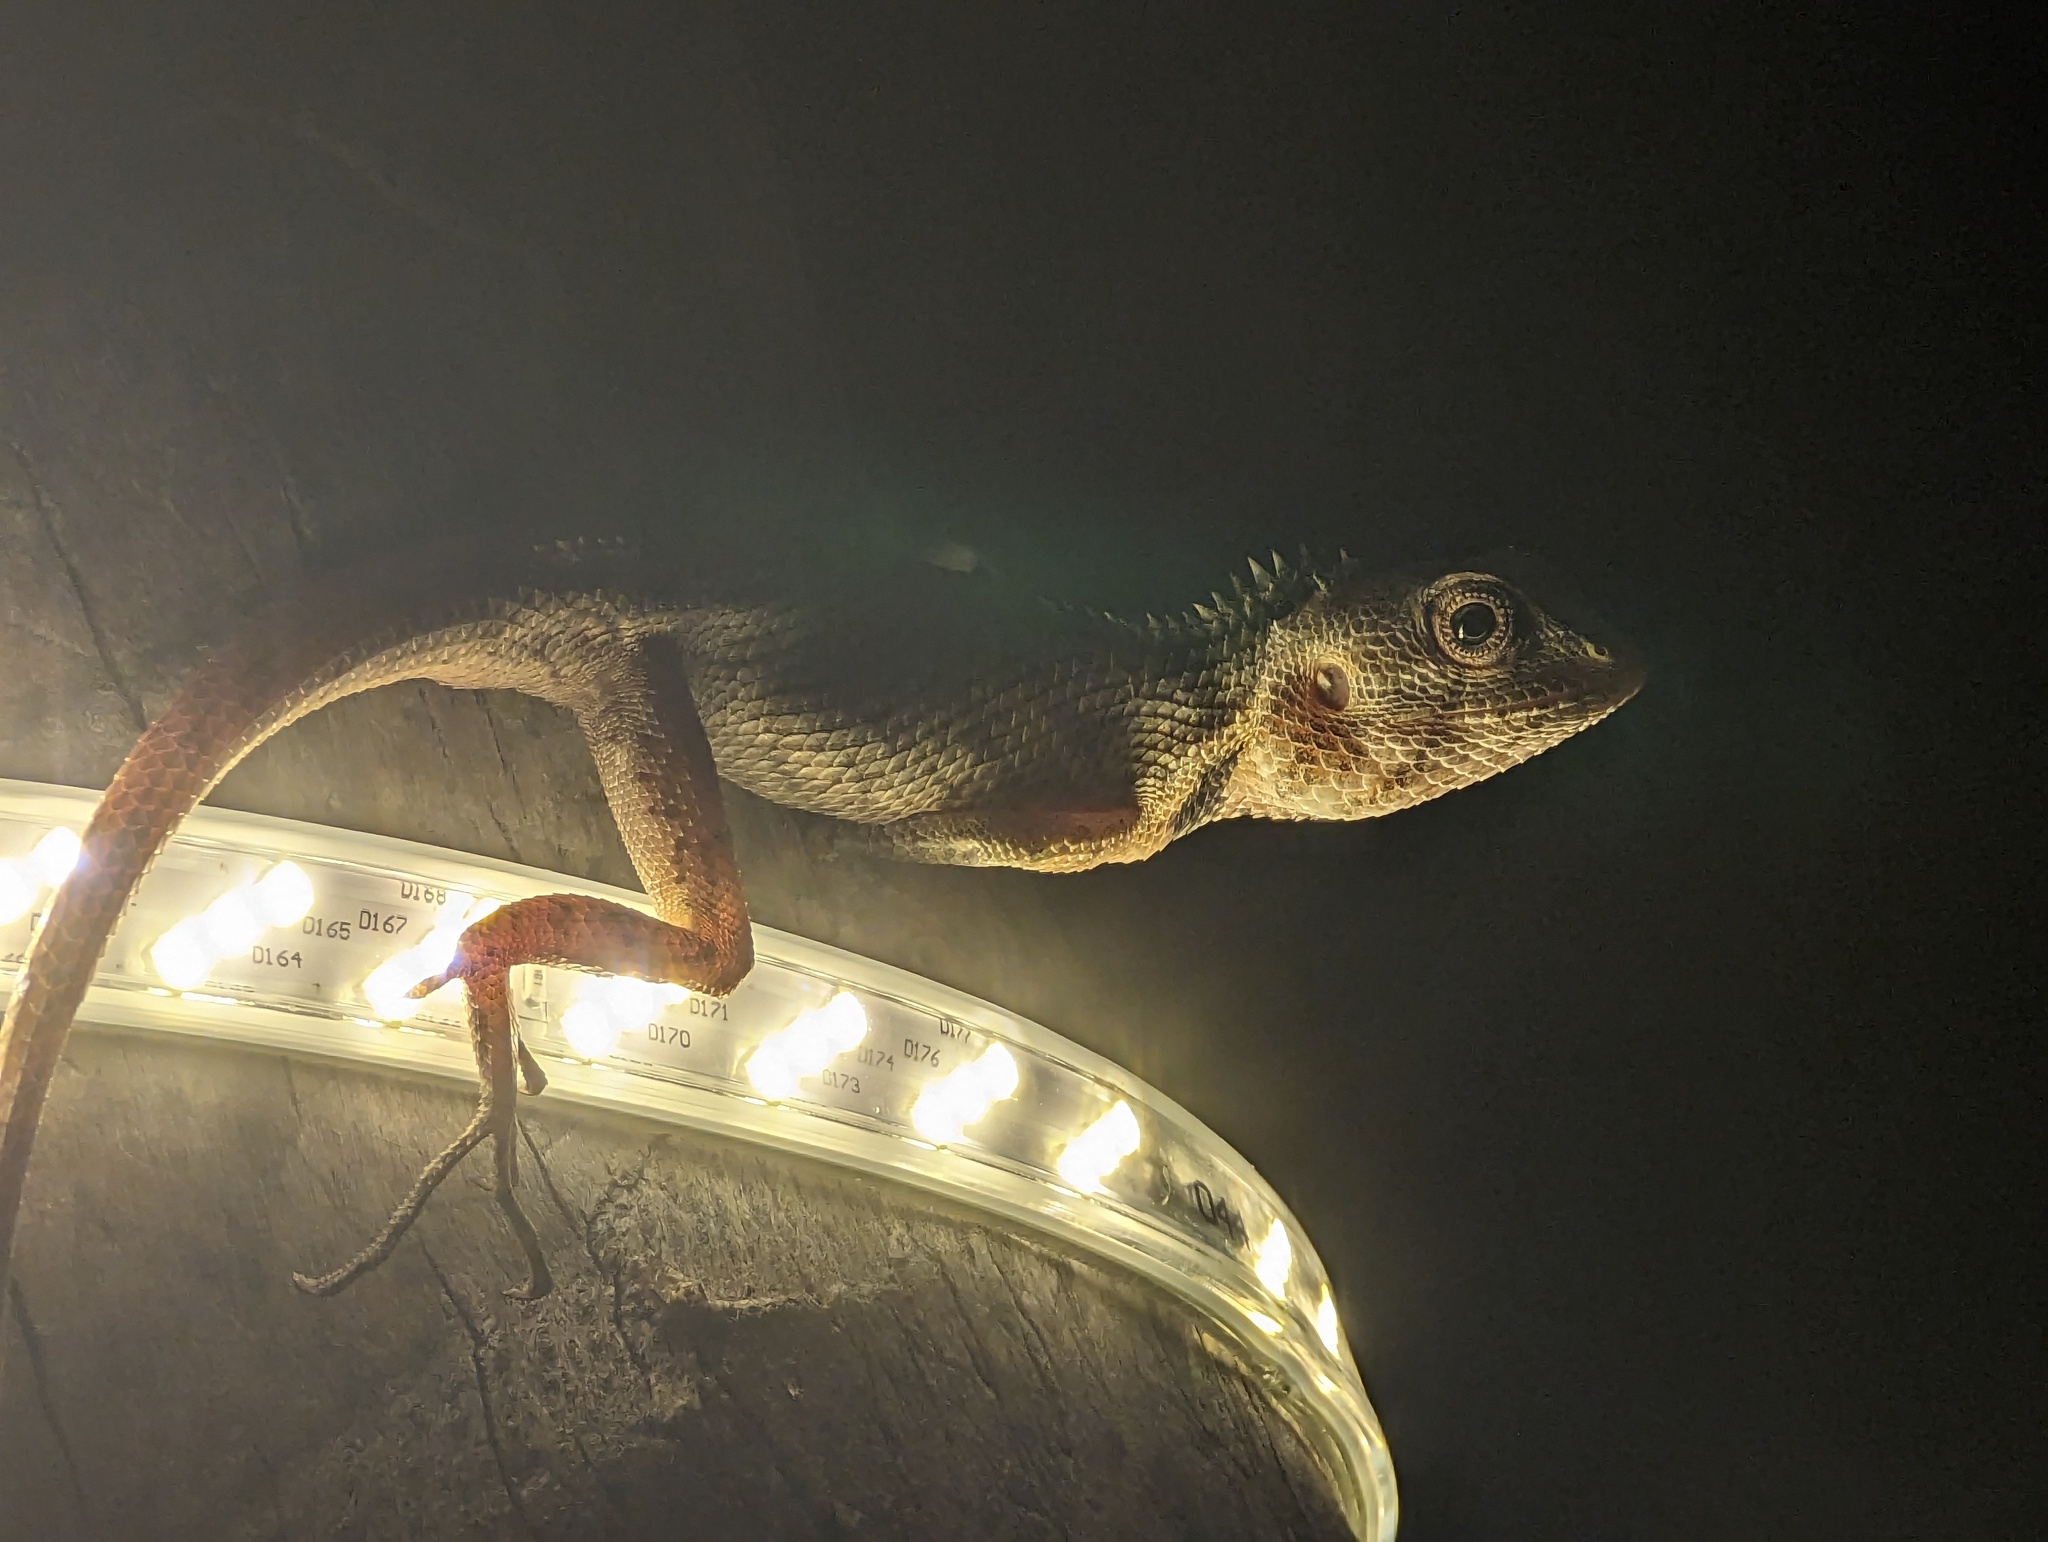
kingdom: Animalia
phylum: Chordata
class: Squamata
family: Agamidae
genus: Calotes
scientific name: Calotes versicolor
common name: Oriental garden lizard
